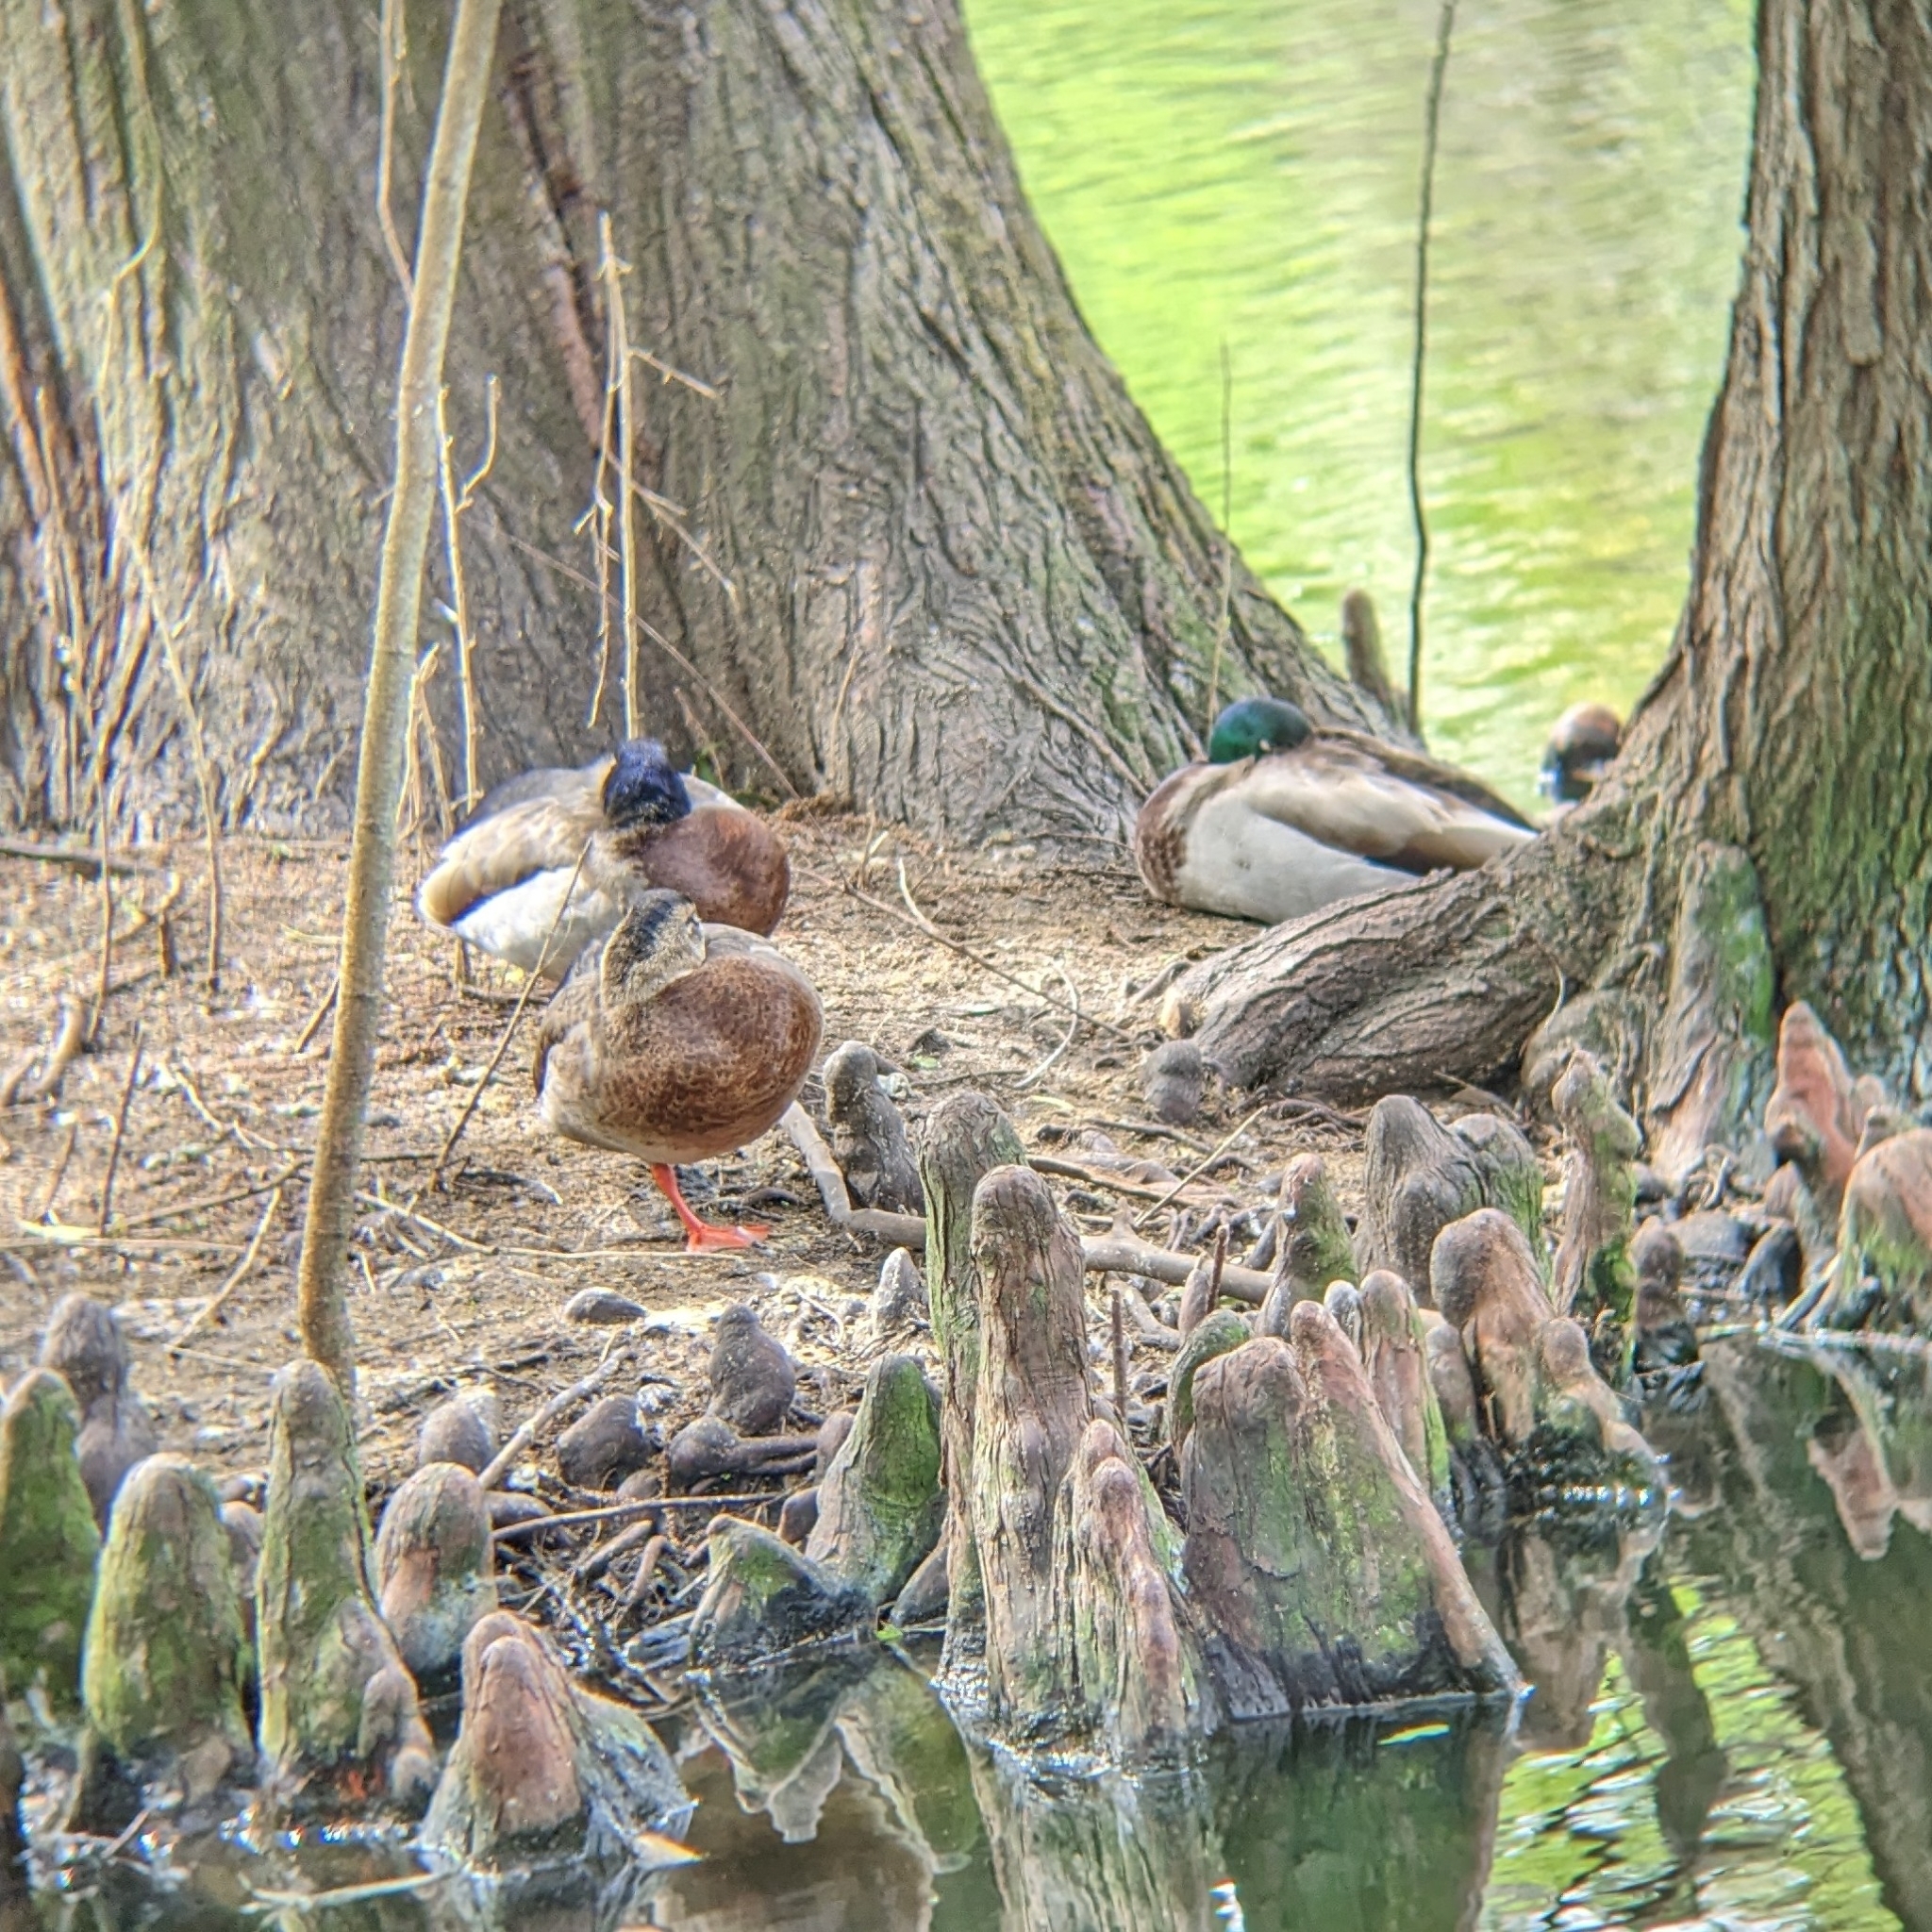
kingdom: Animalia
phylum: Chordata
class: Aves
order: Anseriformes
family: Anatidae
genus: Anas
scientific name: Anas platyrhynchos
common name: Mallard
